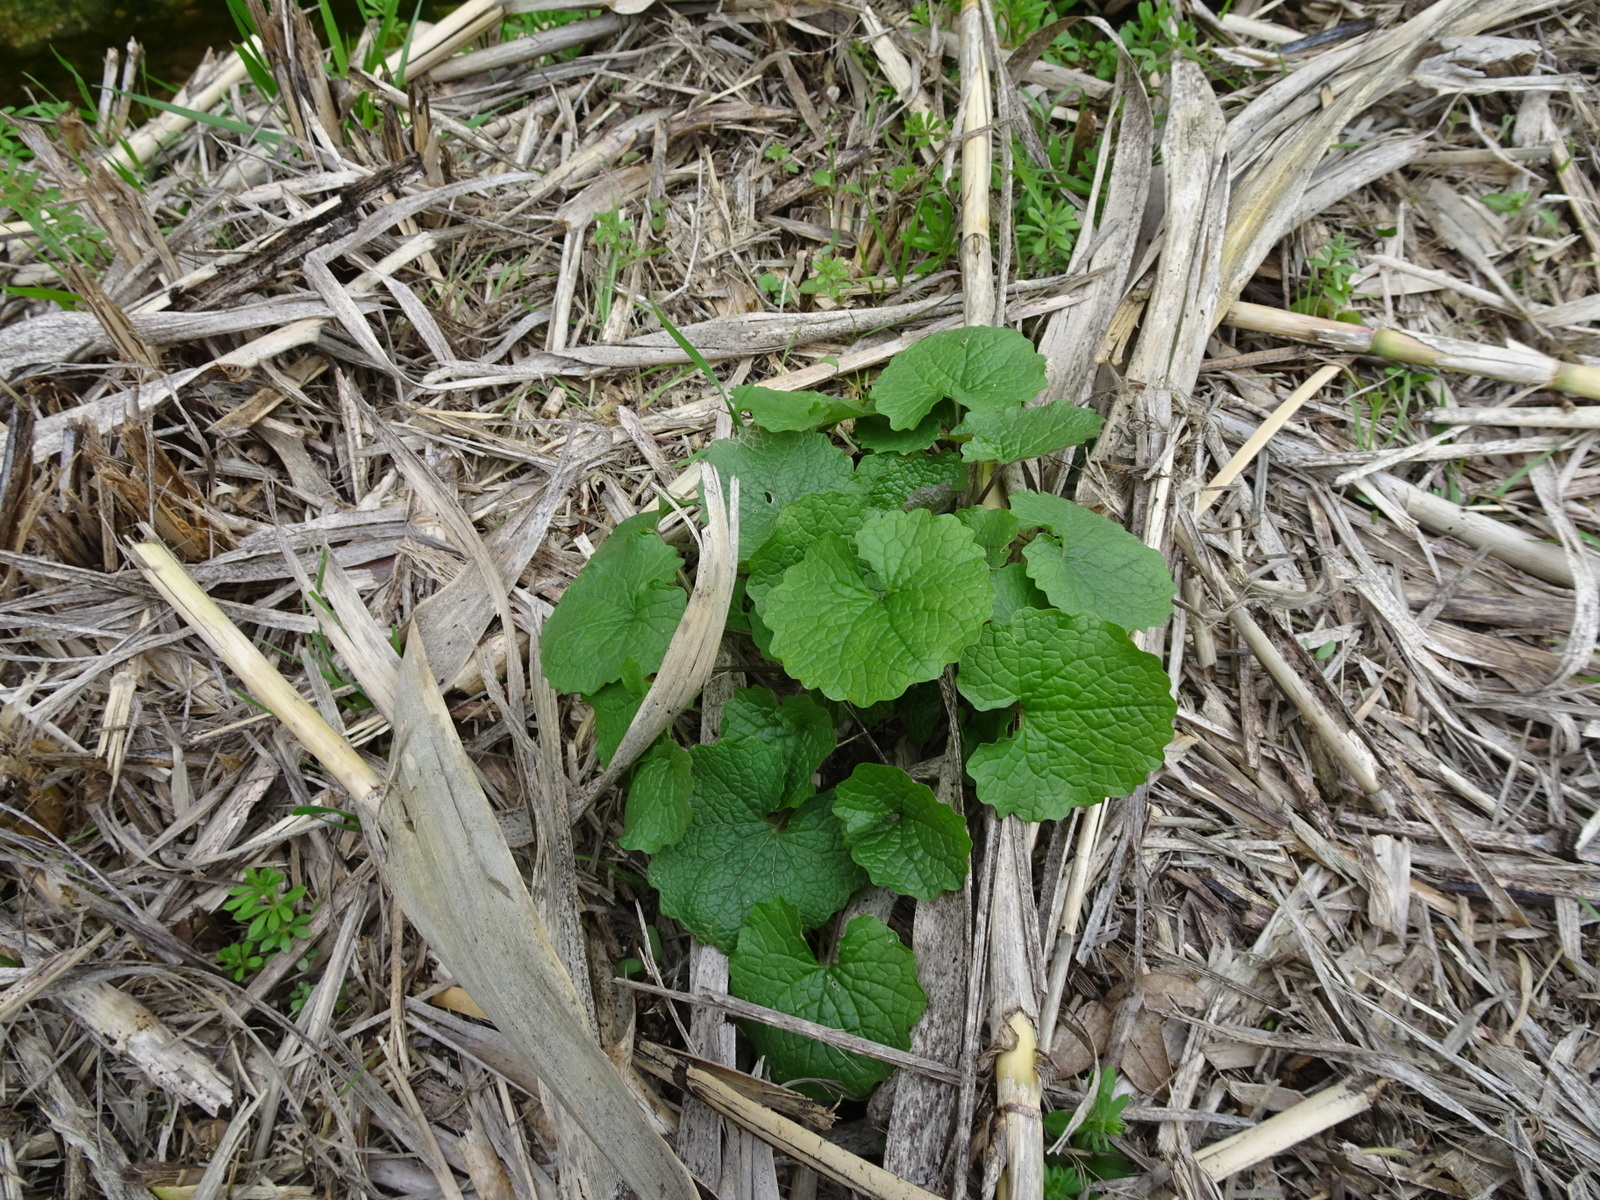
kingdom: Plantae
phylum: Tracheophyta
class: Magnoliopsida
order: Brassicales
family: Brassicaceae
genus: Alliaria
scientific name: Alliaria petiolata
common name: Garlic mustard
